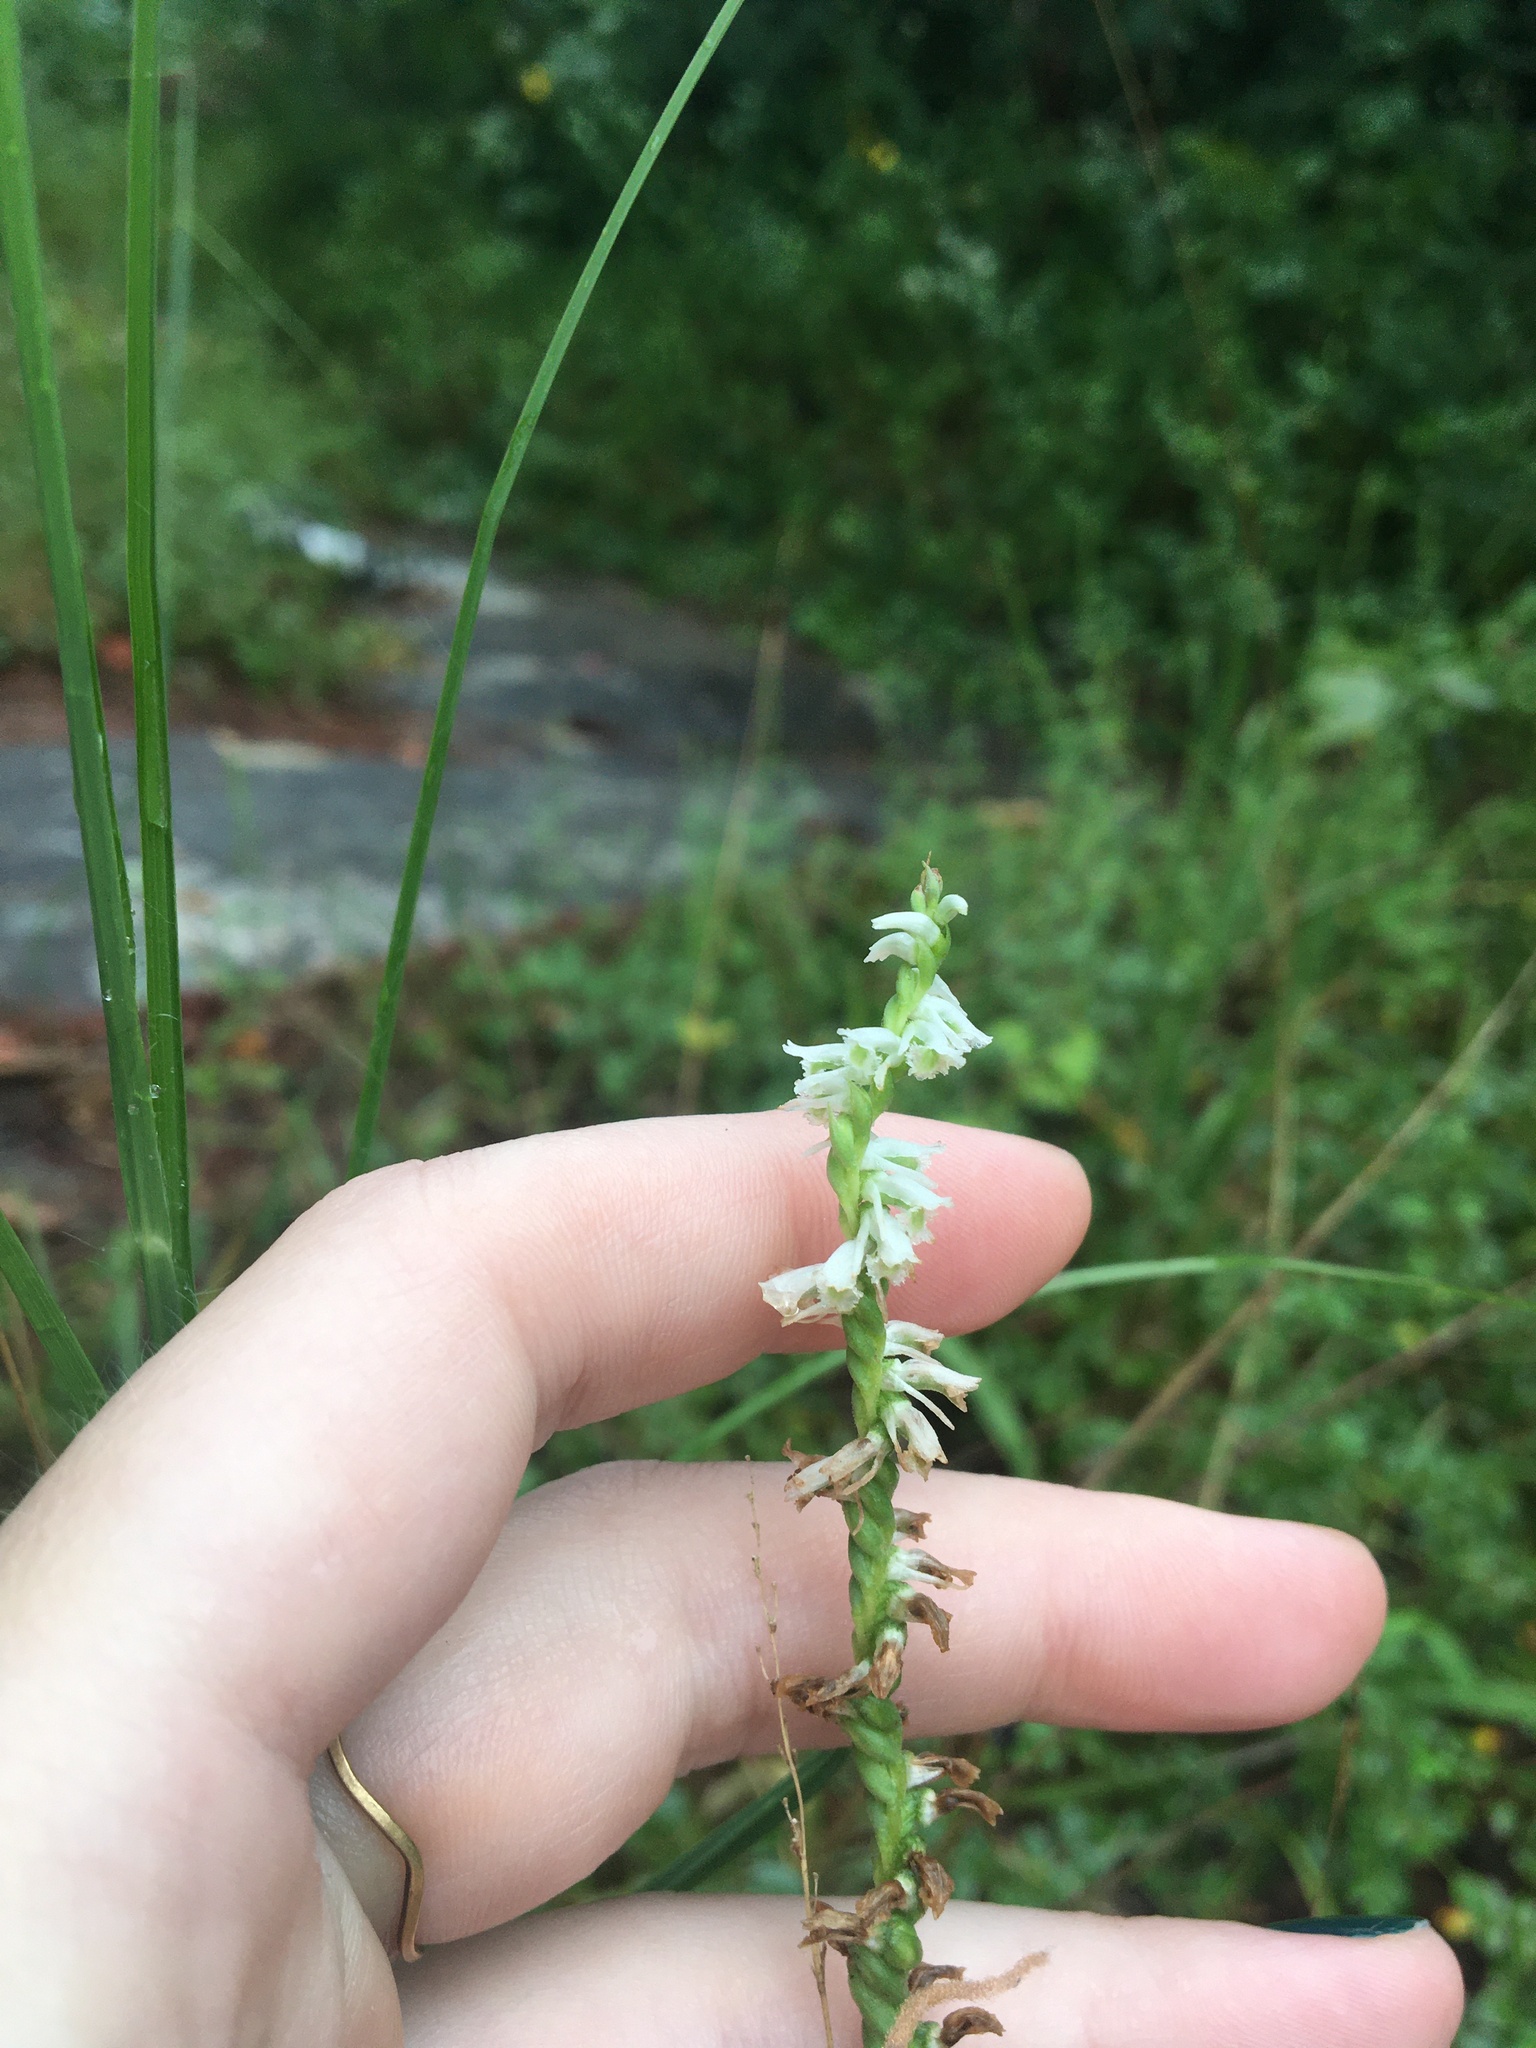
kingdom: Plantae
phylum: Tracheophyta
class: Liliopsida
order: Asparagales
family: Orchidaceae
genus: Spiranthes
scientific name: Spiranthes lacera
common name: Northern slender ladies'-tresses
